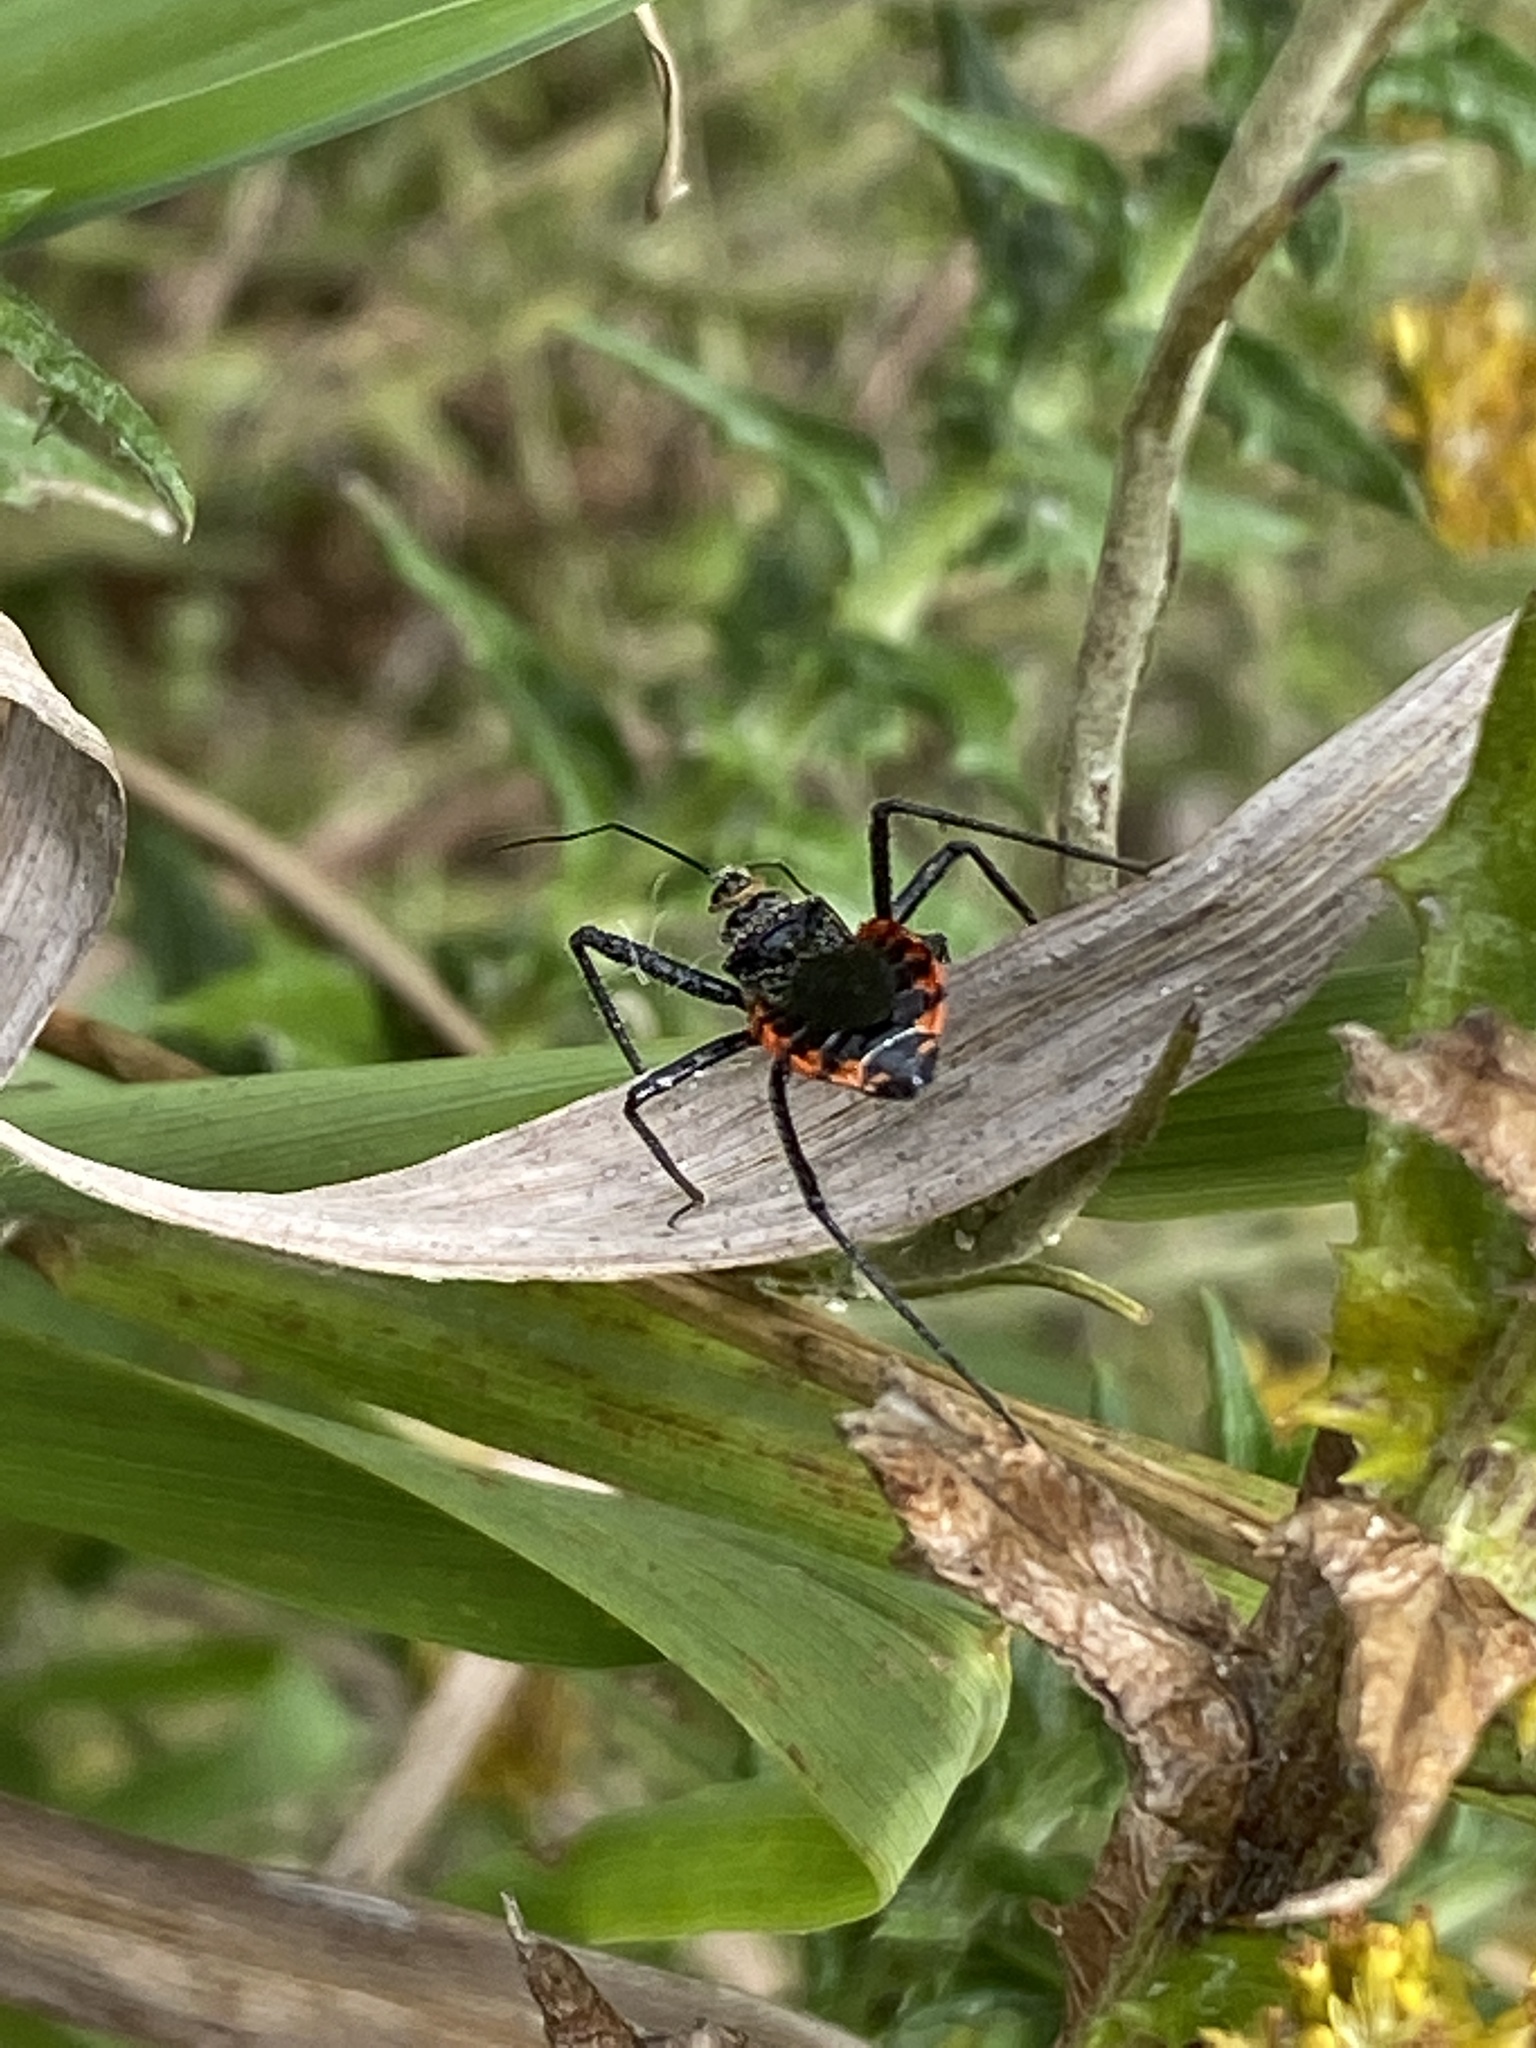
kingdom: Animalia
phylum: Arthropoda
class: Insecta
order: Hemiptera
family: Reduviidae
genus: Rhynocoris
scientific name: Rhynocoris tristis
